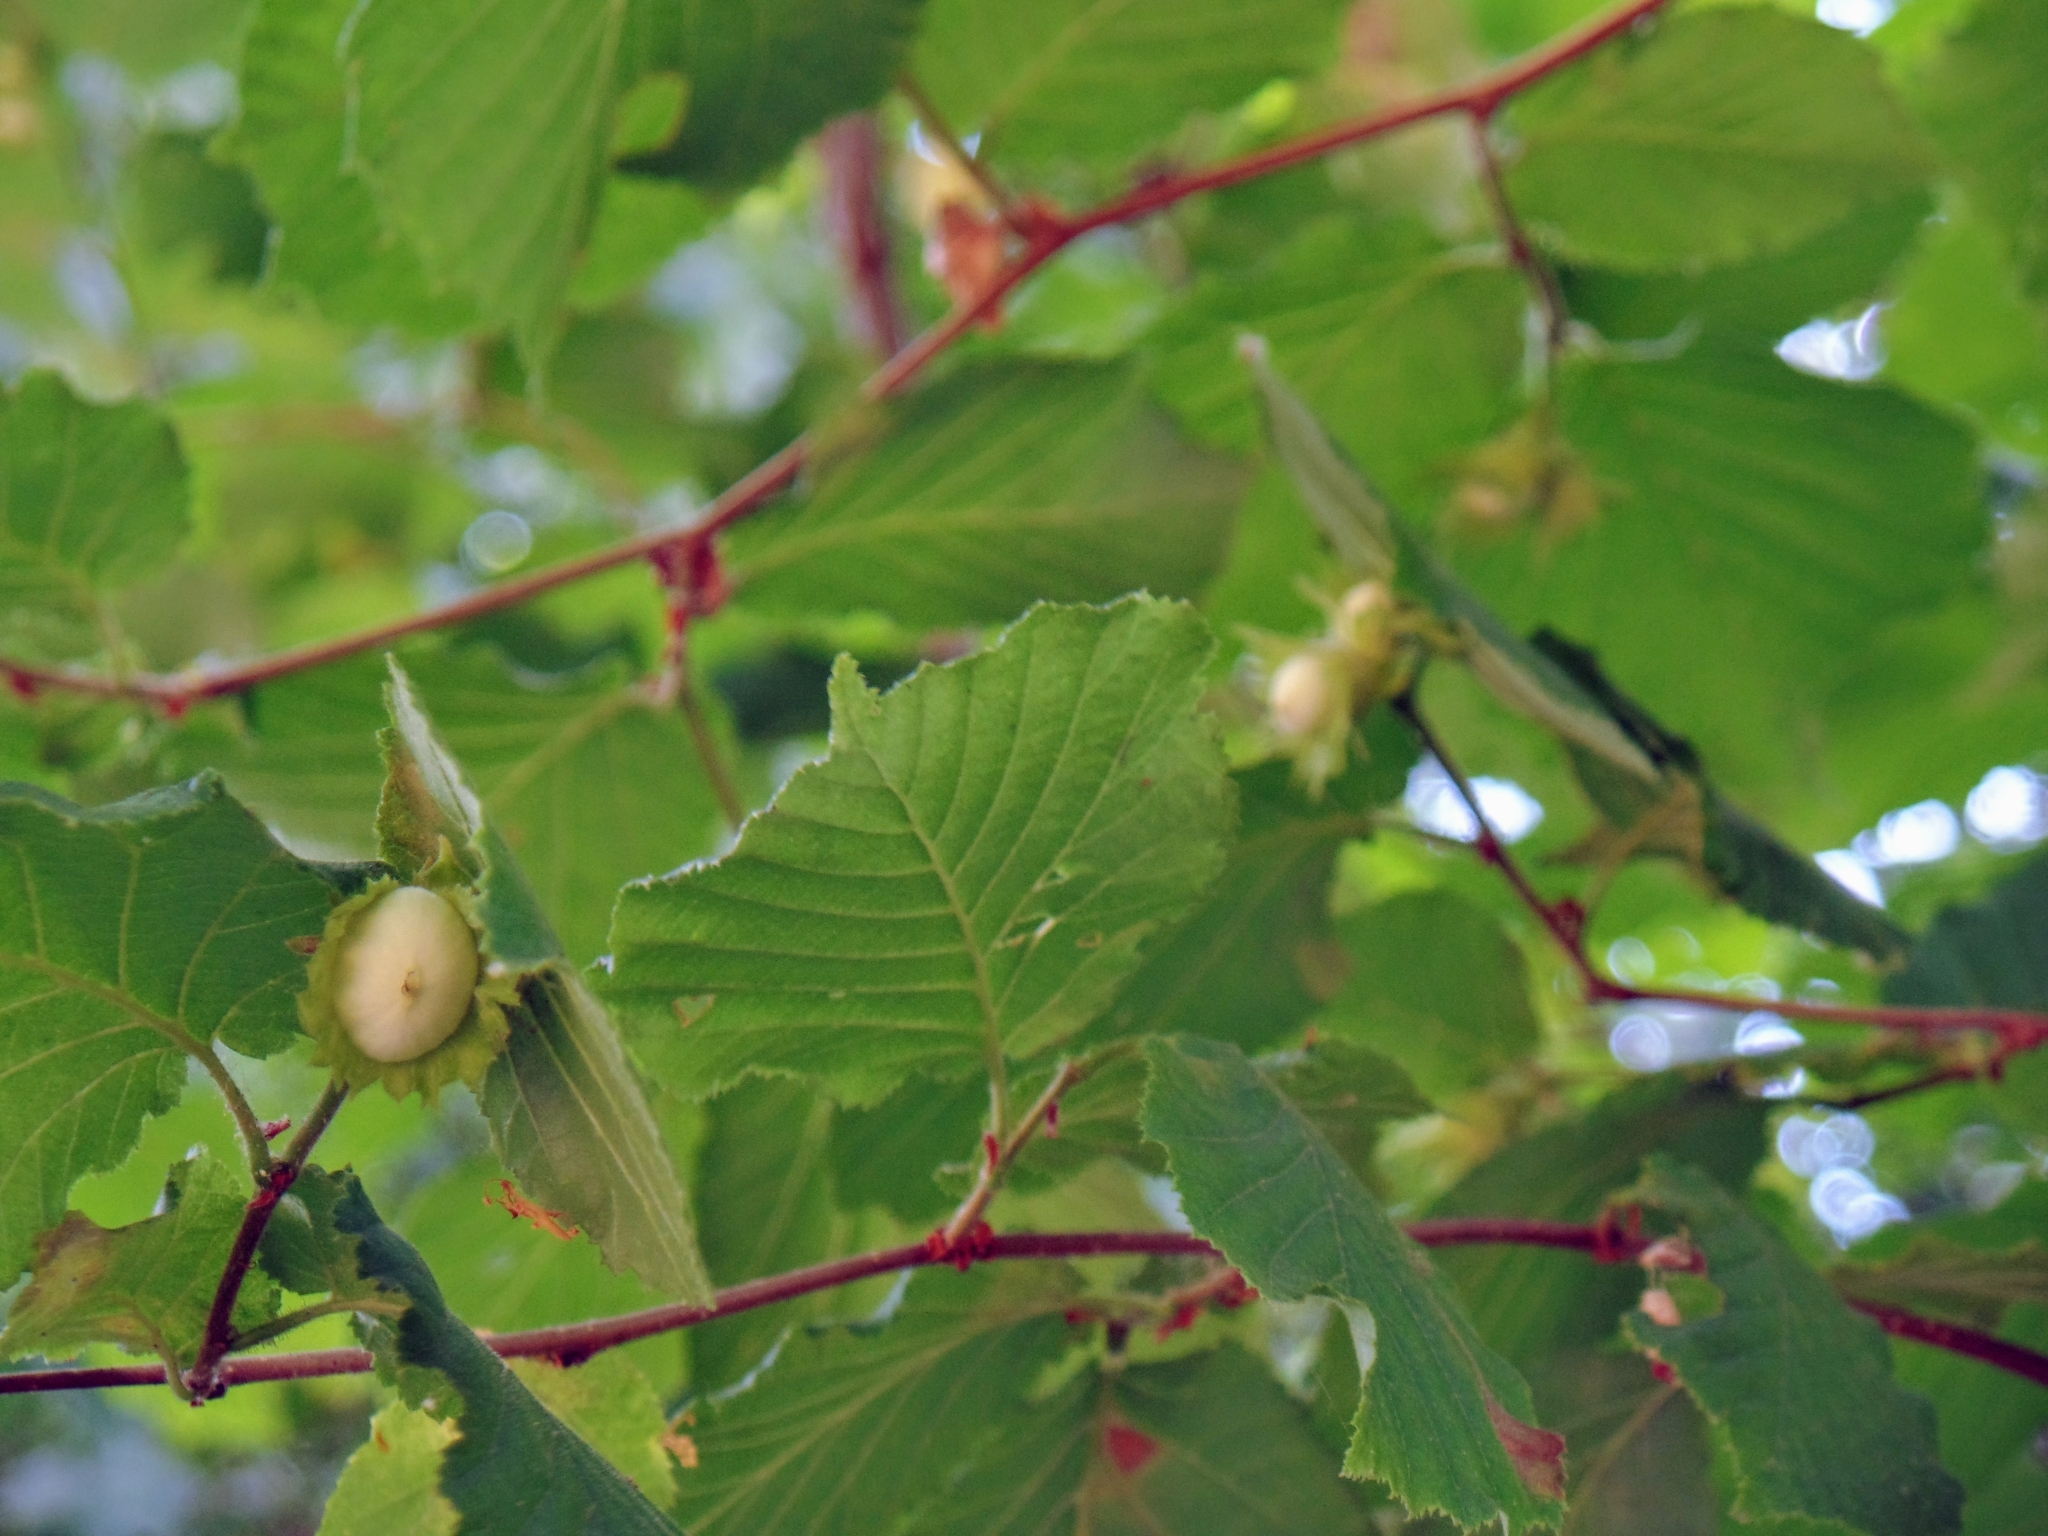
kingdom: Plantae
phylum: Tracheophyta
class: Magnoliopsida
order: Fagales
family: Betulaceae
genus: Corylus
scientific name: Corylus avellana
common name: European hazel
